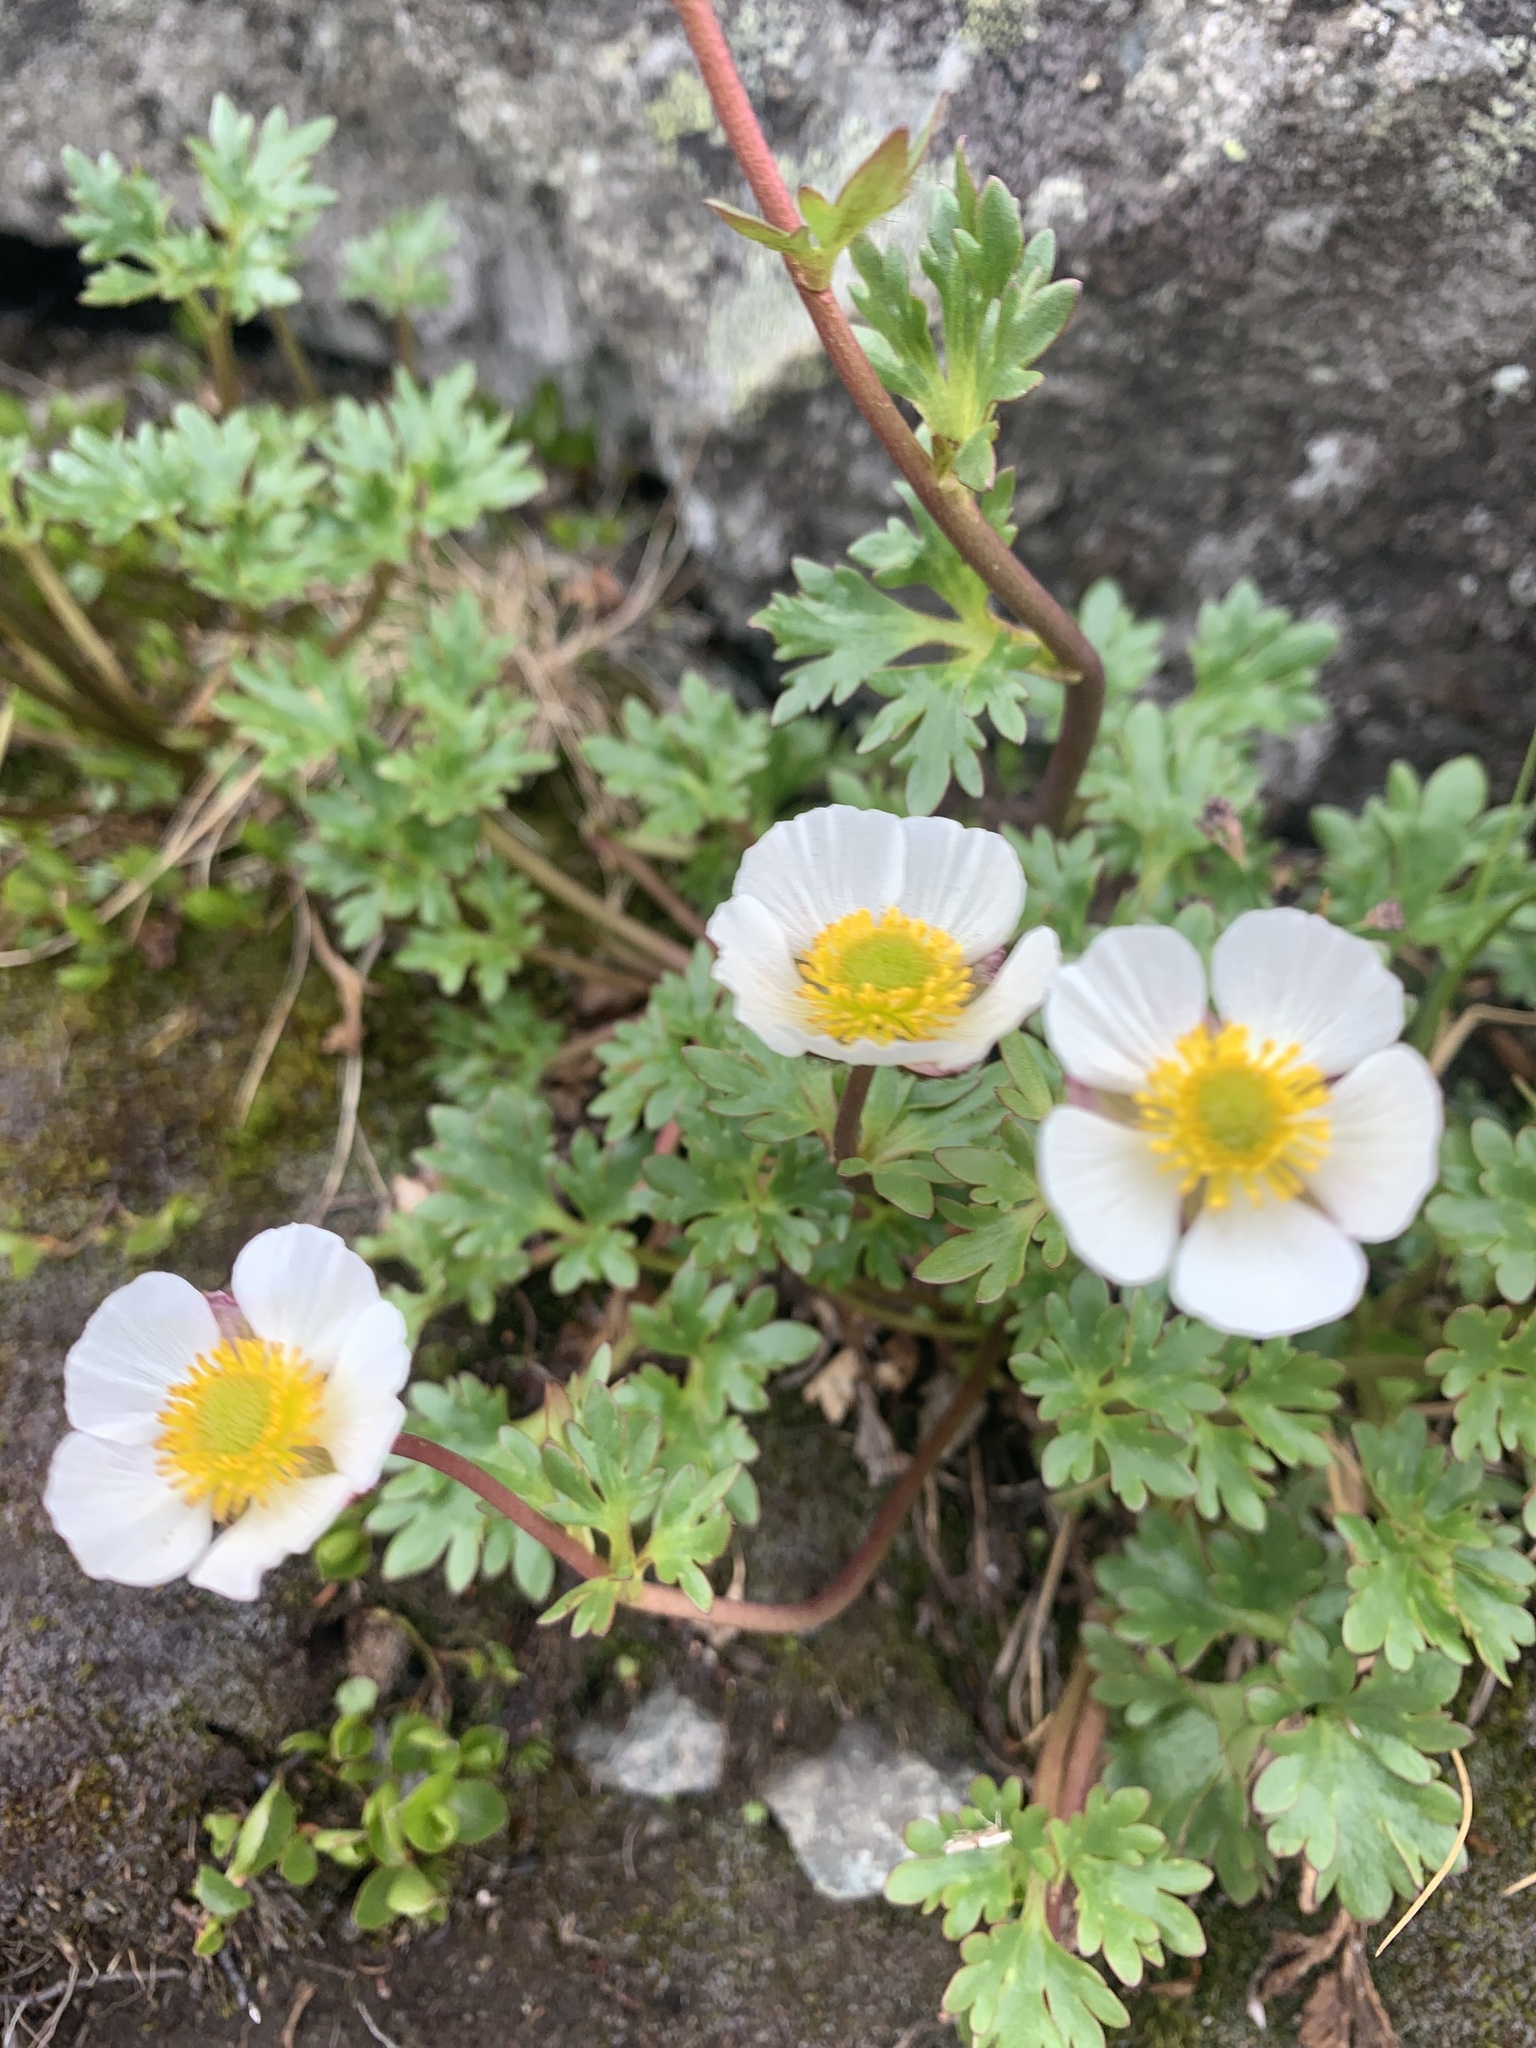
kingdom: Plantae
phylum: Tracheophyta
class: Magnoliopsida
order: Ranunculales
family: Ranunculaceae
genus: Ranunculus
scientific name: Ranunculus glacialis
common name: Glacier buttercup
